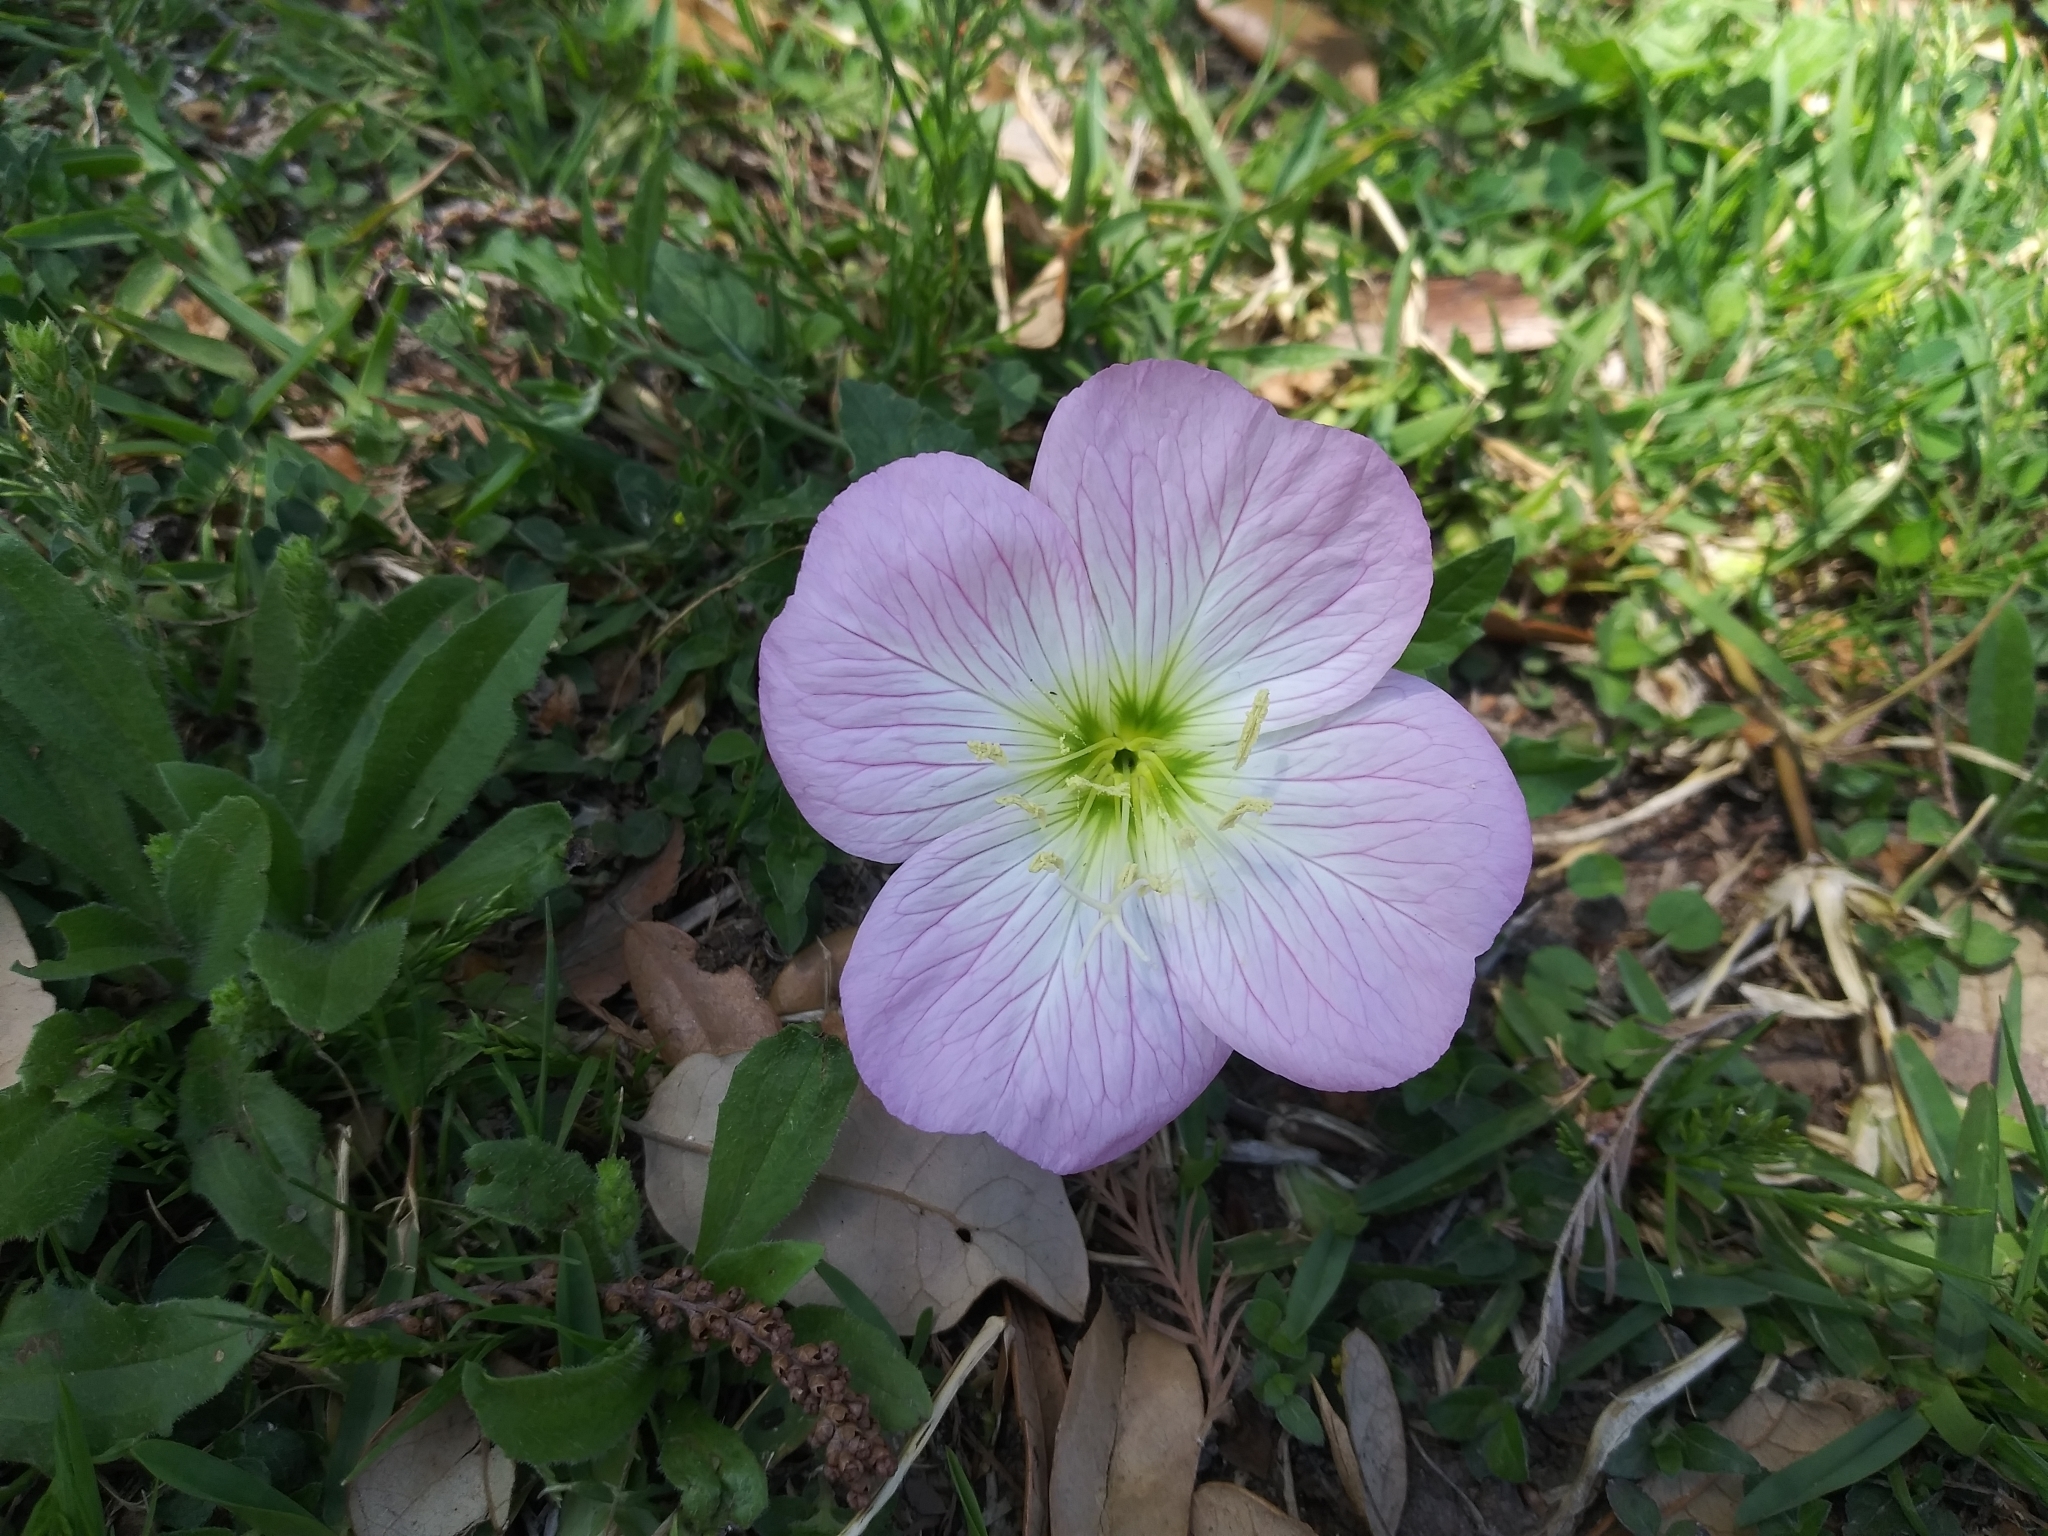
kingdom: Plantae
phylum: Tracheophyta
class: Magnoliopsida
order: Myrtales
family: Onagraceae
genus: Oenothera
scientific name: Oenothera speciosa
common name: White evening-primrose
